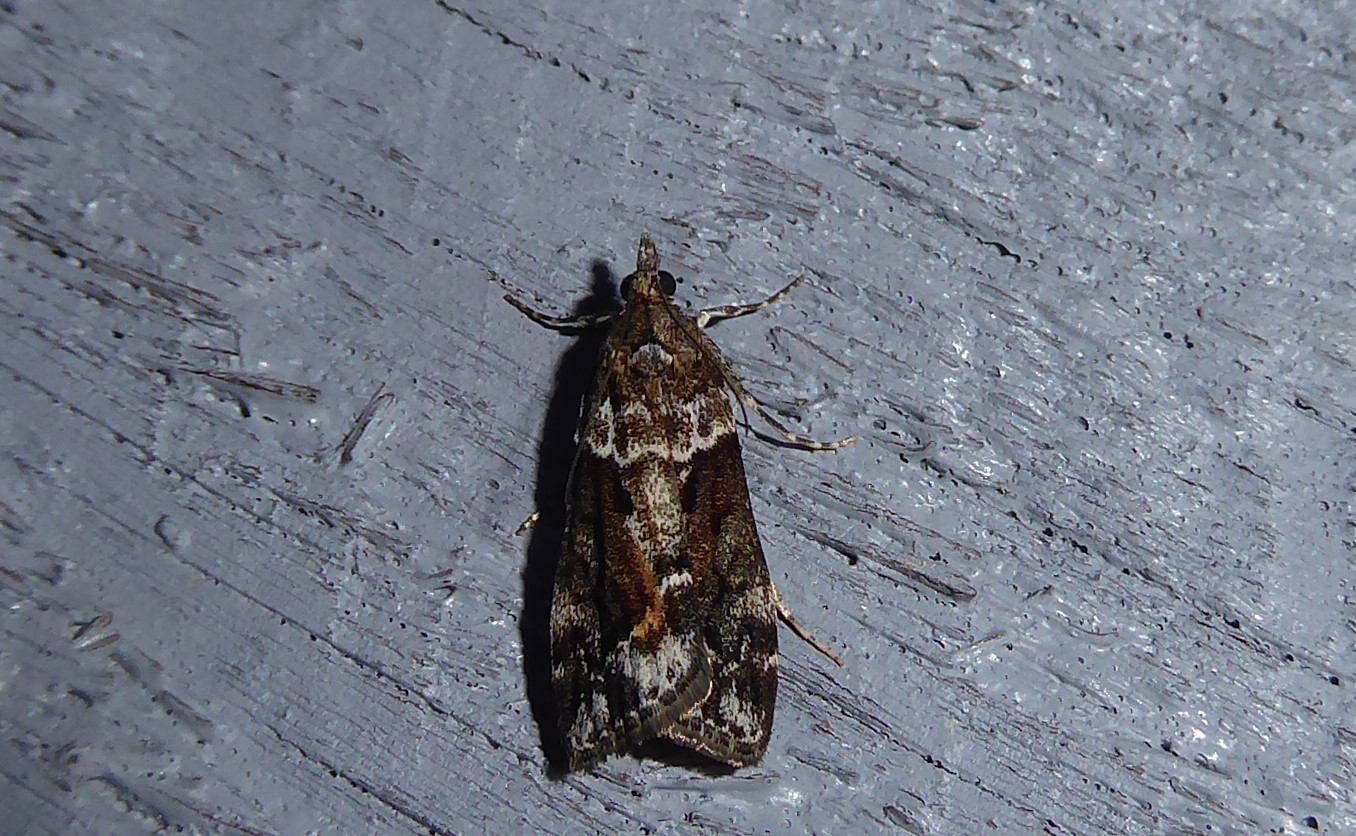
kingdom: Animalia
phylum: Arthropoda
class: Insecta
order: Lepidoptera
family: Crambidae
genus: Eudonia
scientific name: Eudonia submarginalis
